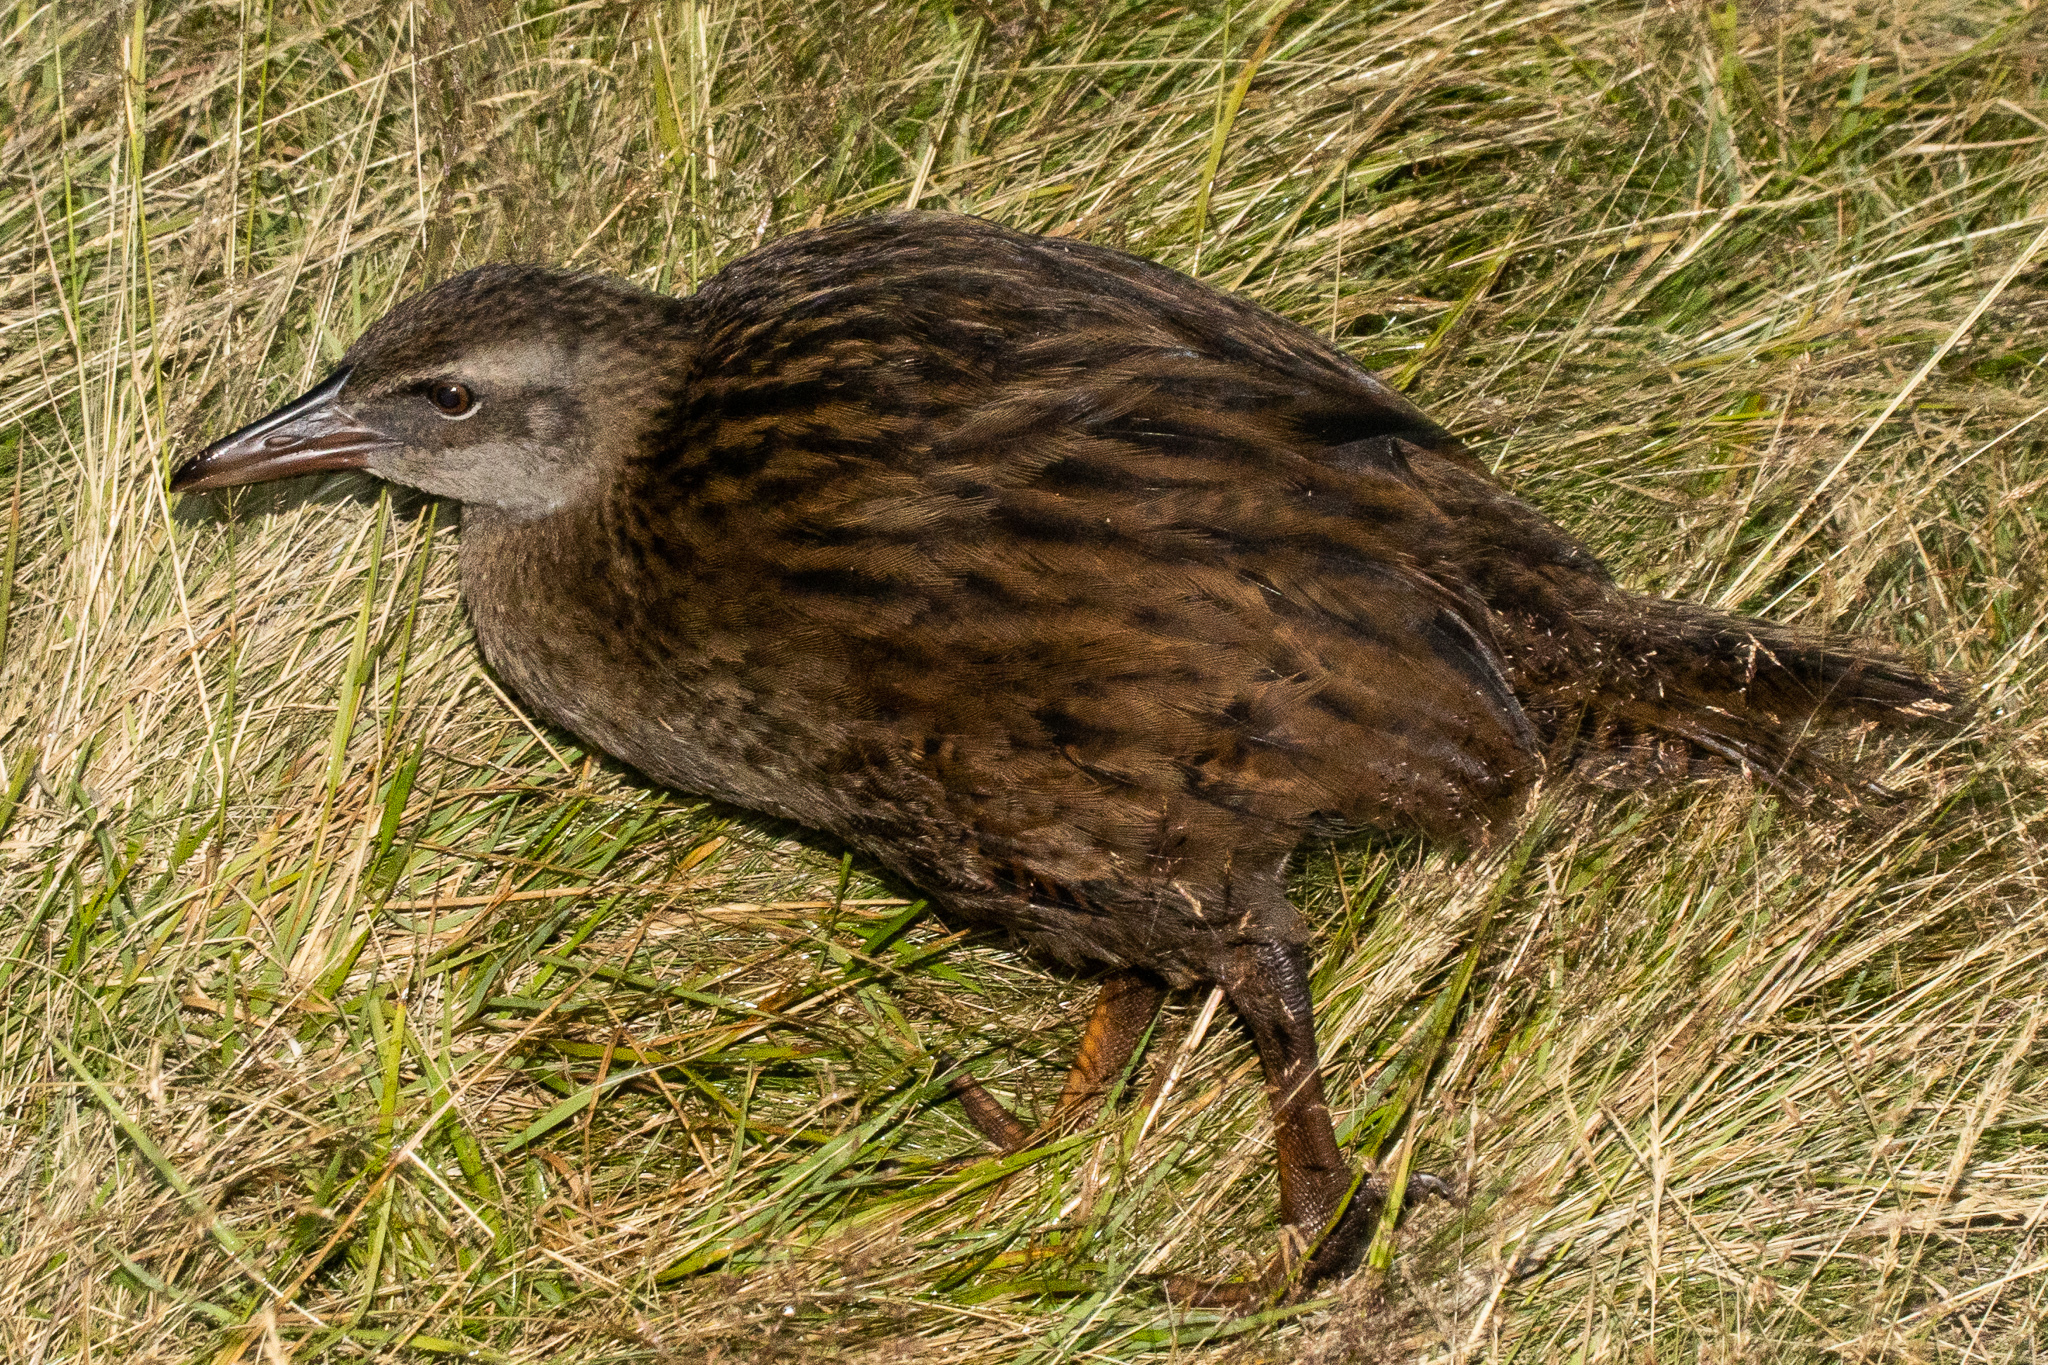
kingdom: Animalia
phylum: Chordata
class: Aves
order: Gruiformes
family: Rallidae
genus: Gallirallus
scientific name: Gallirallus australis
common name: Weka
